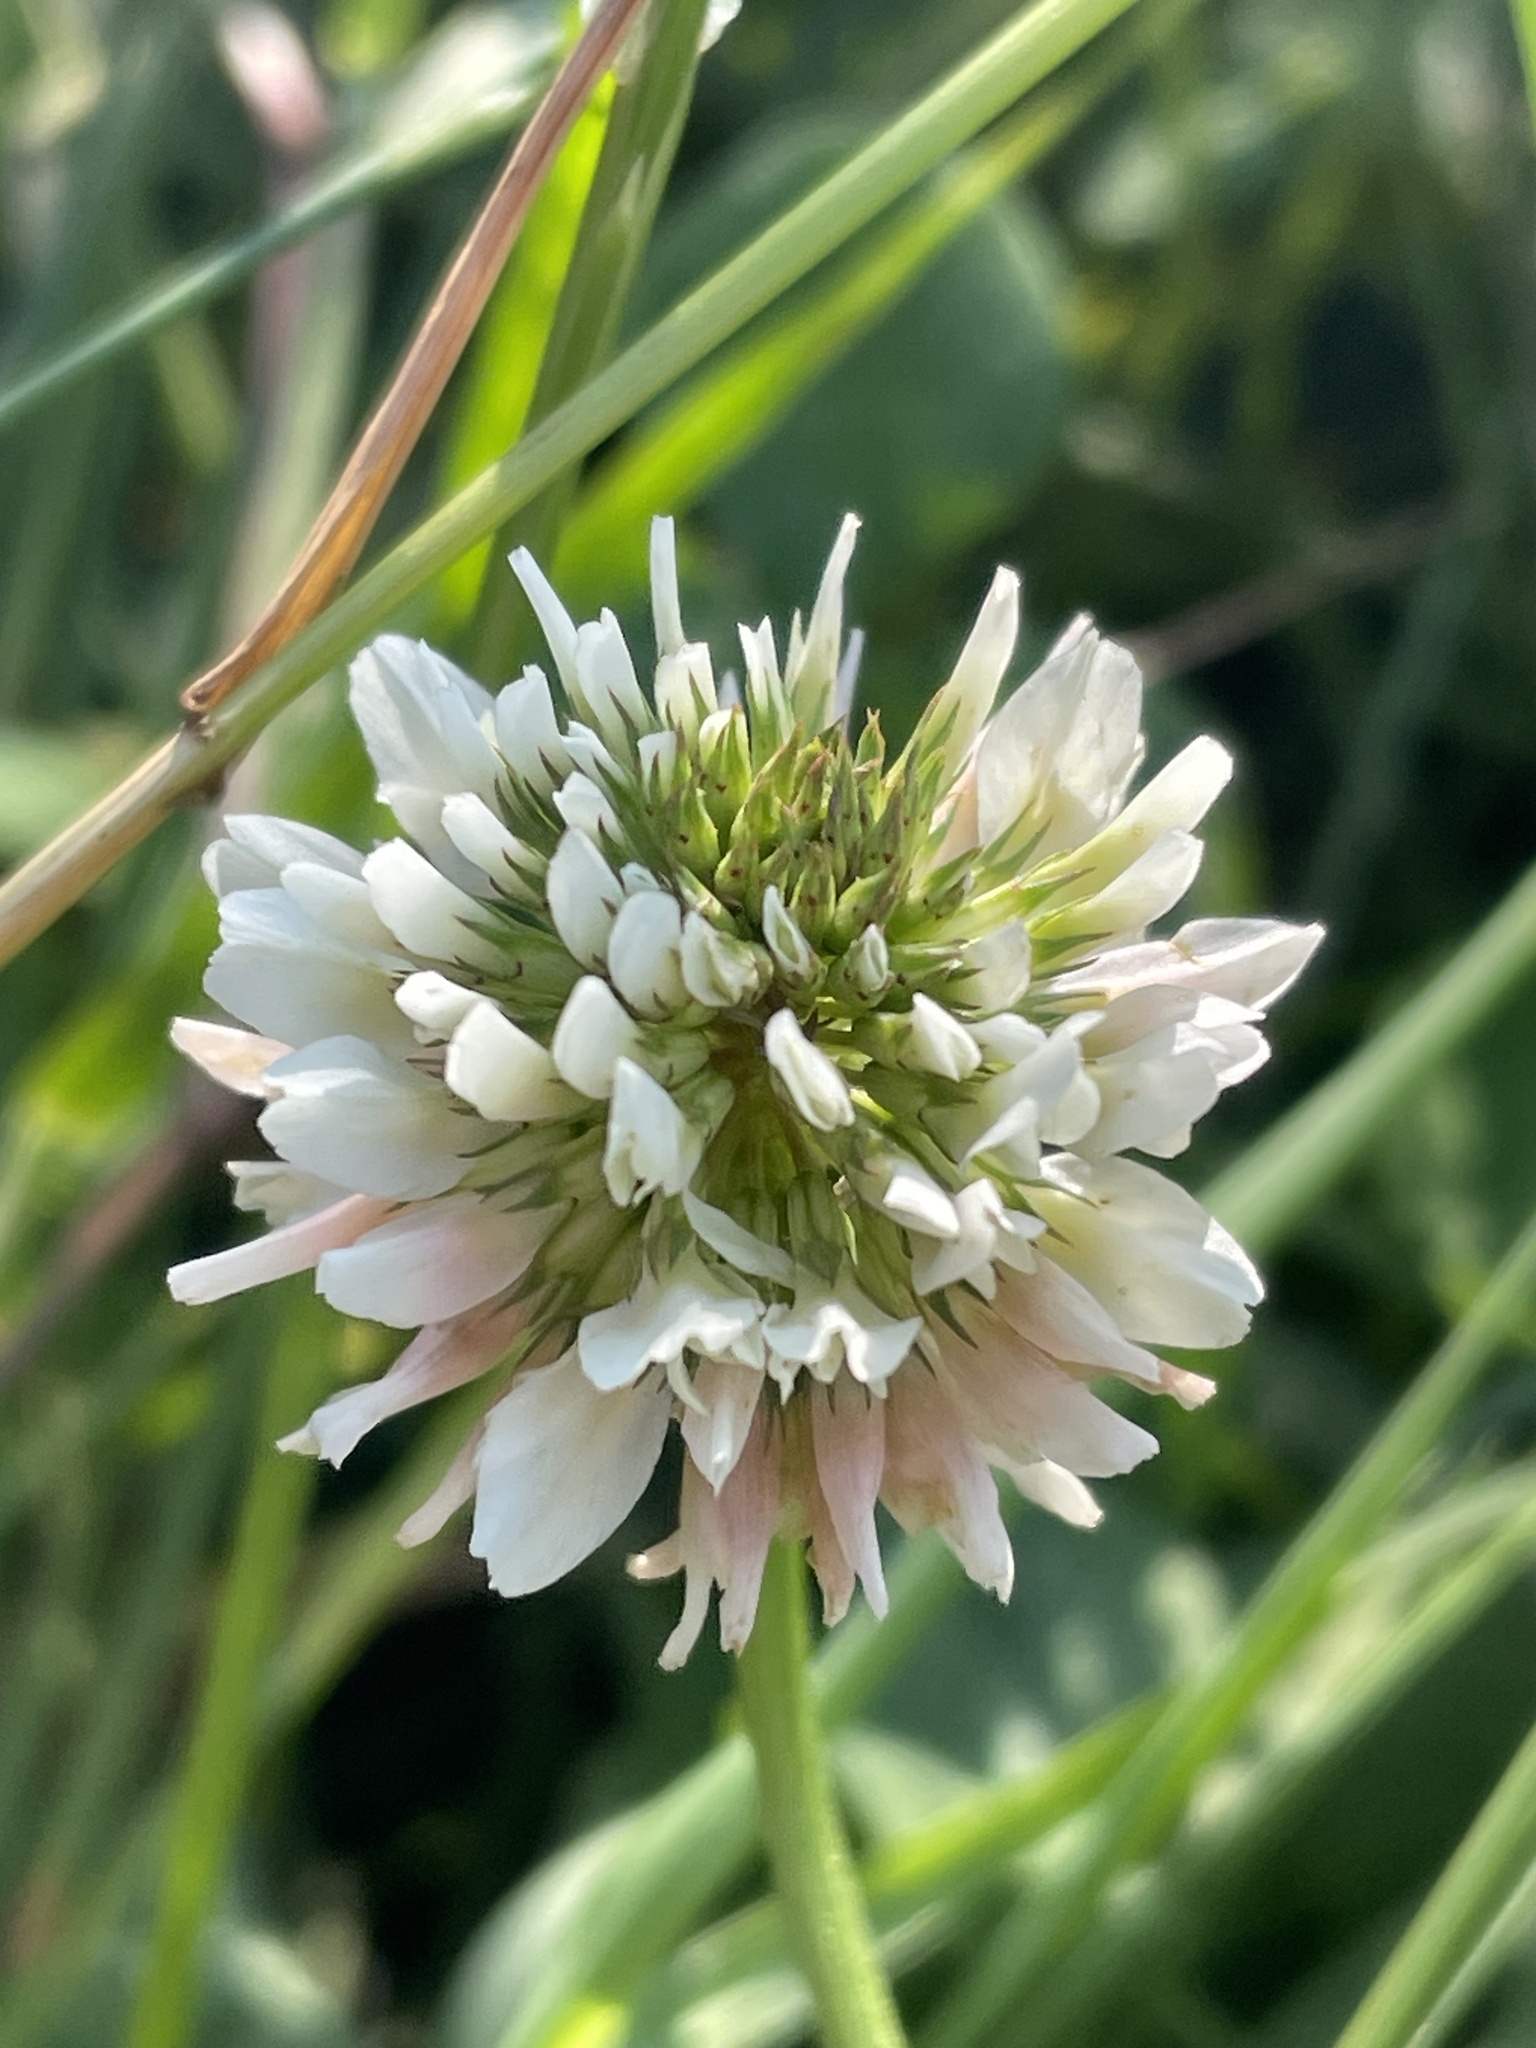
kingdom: Plantae
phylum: Tracheophyta
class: Magnoliopsida
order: Fabales
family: Fabaceae
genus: Trifolium
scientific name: Trifolium repens
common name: White clover
